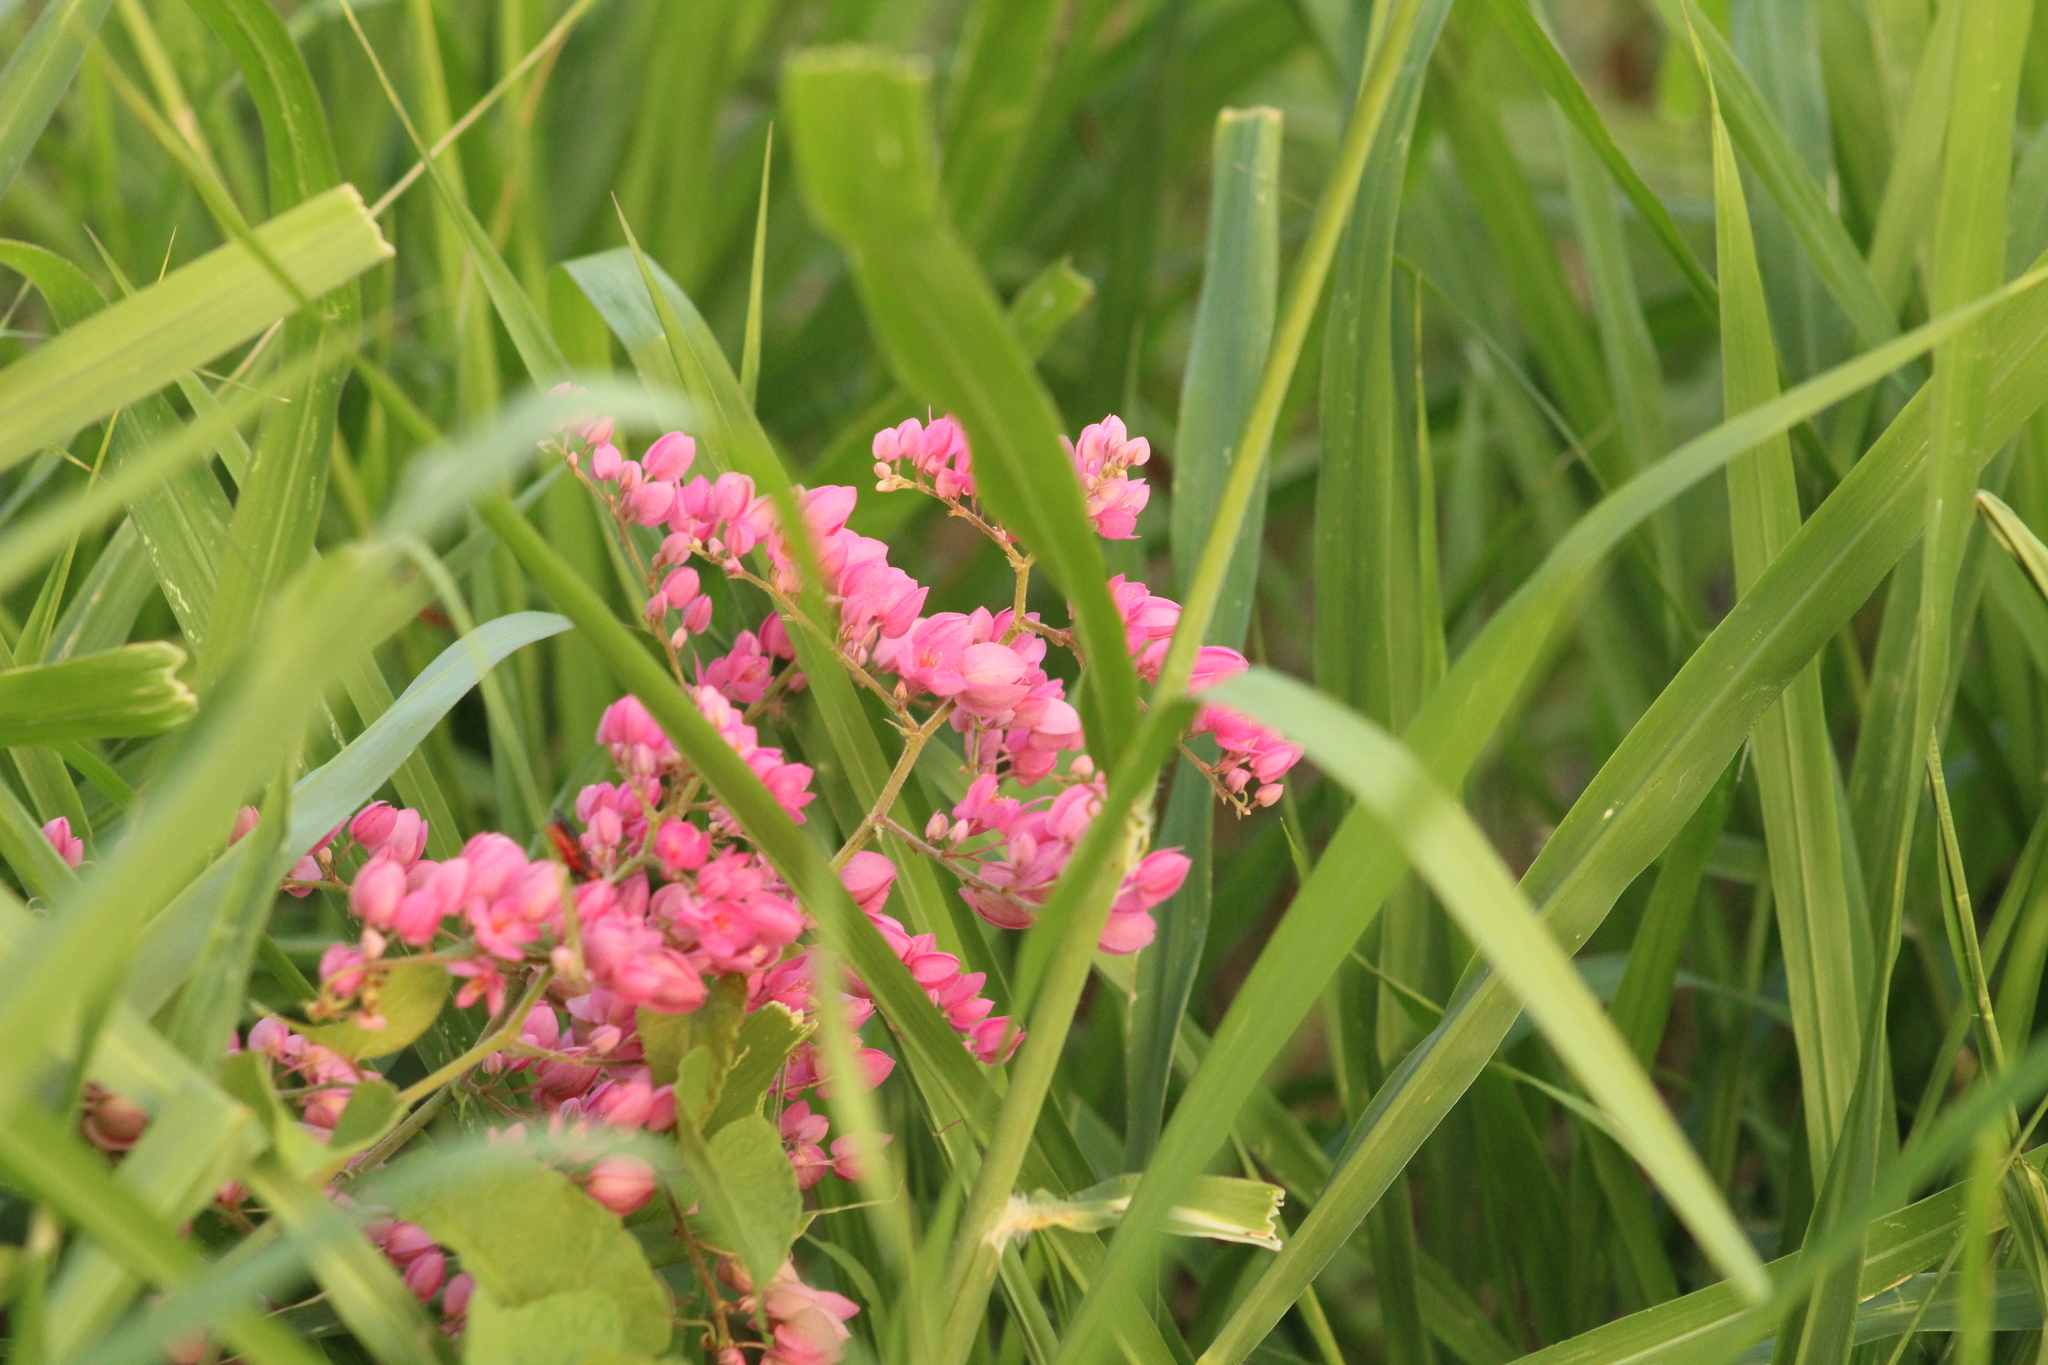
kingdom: Plantae
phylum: Tracheophyta
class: Magnoliopsida
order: Caryophyllales
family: Polygonaceae
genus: Antigonon
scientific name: Antigonon leptopus
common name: Coral vine
